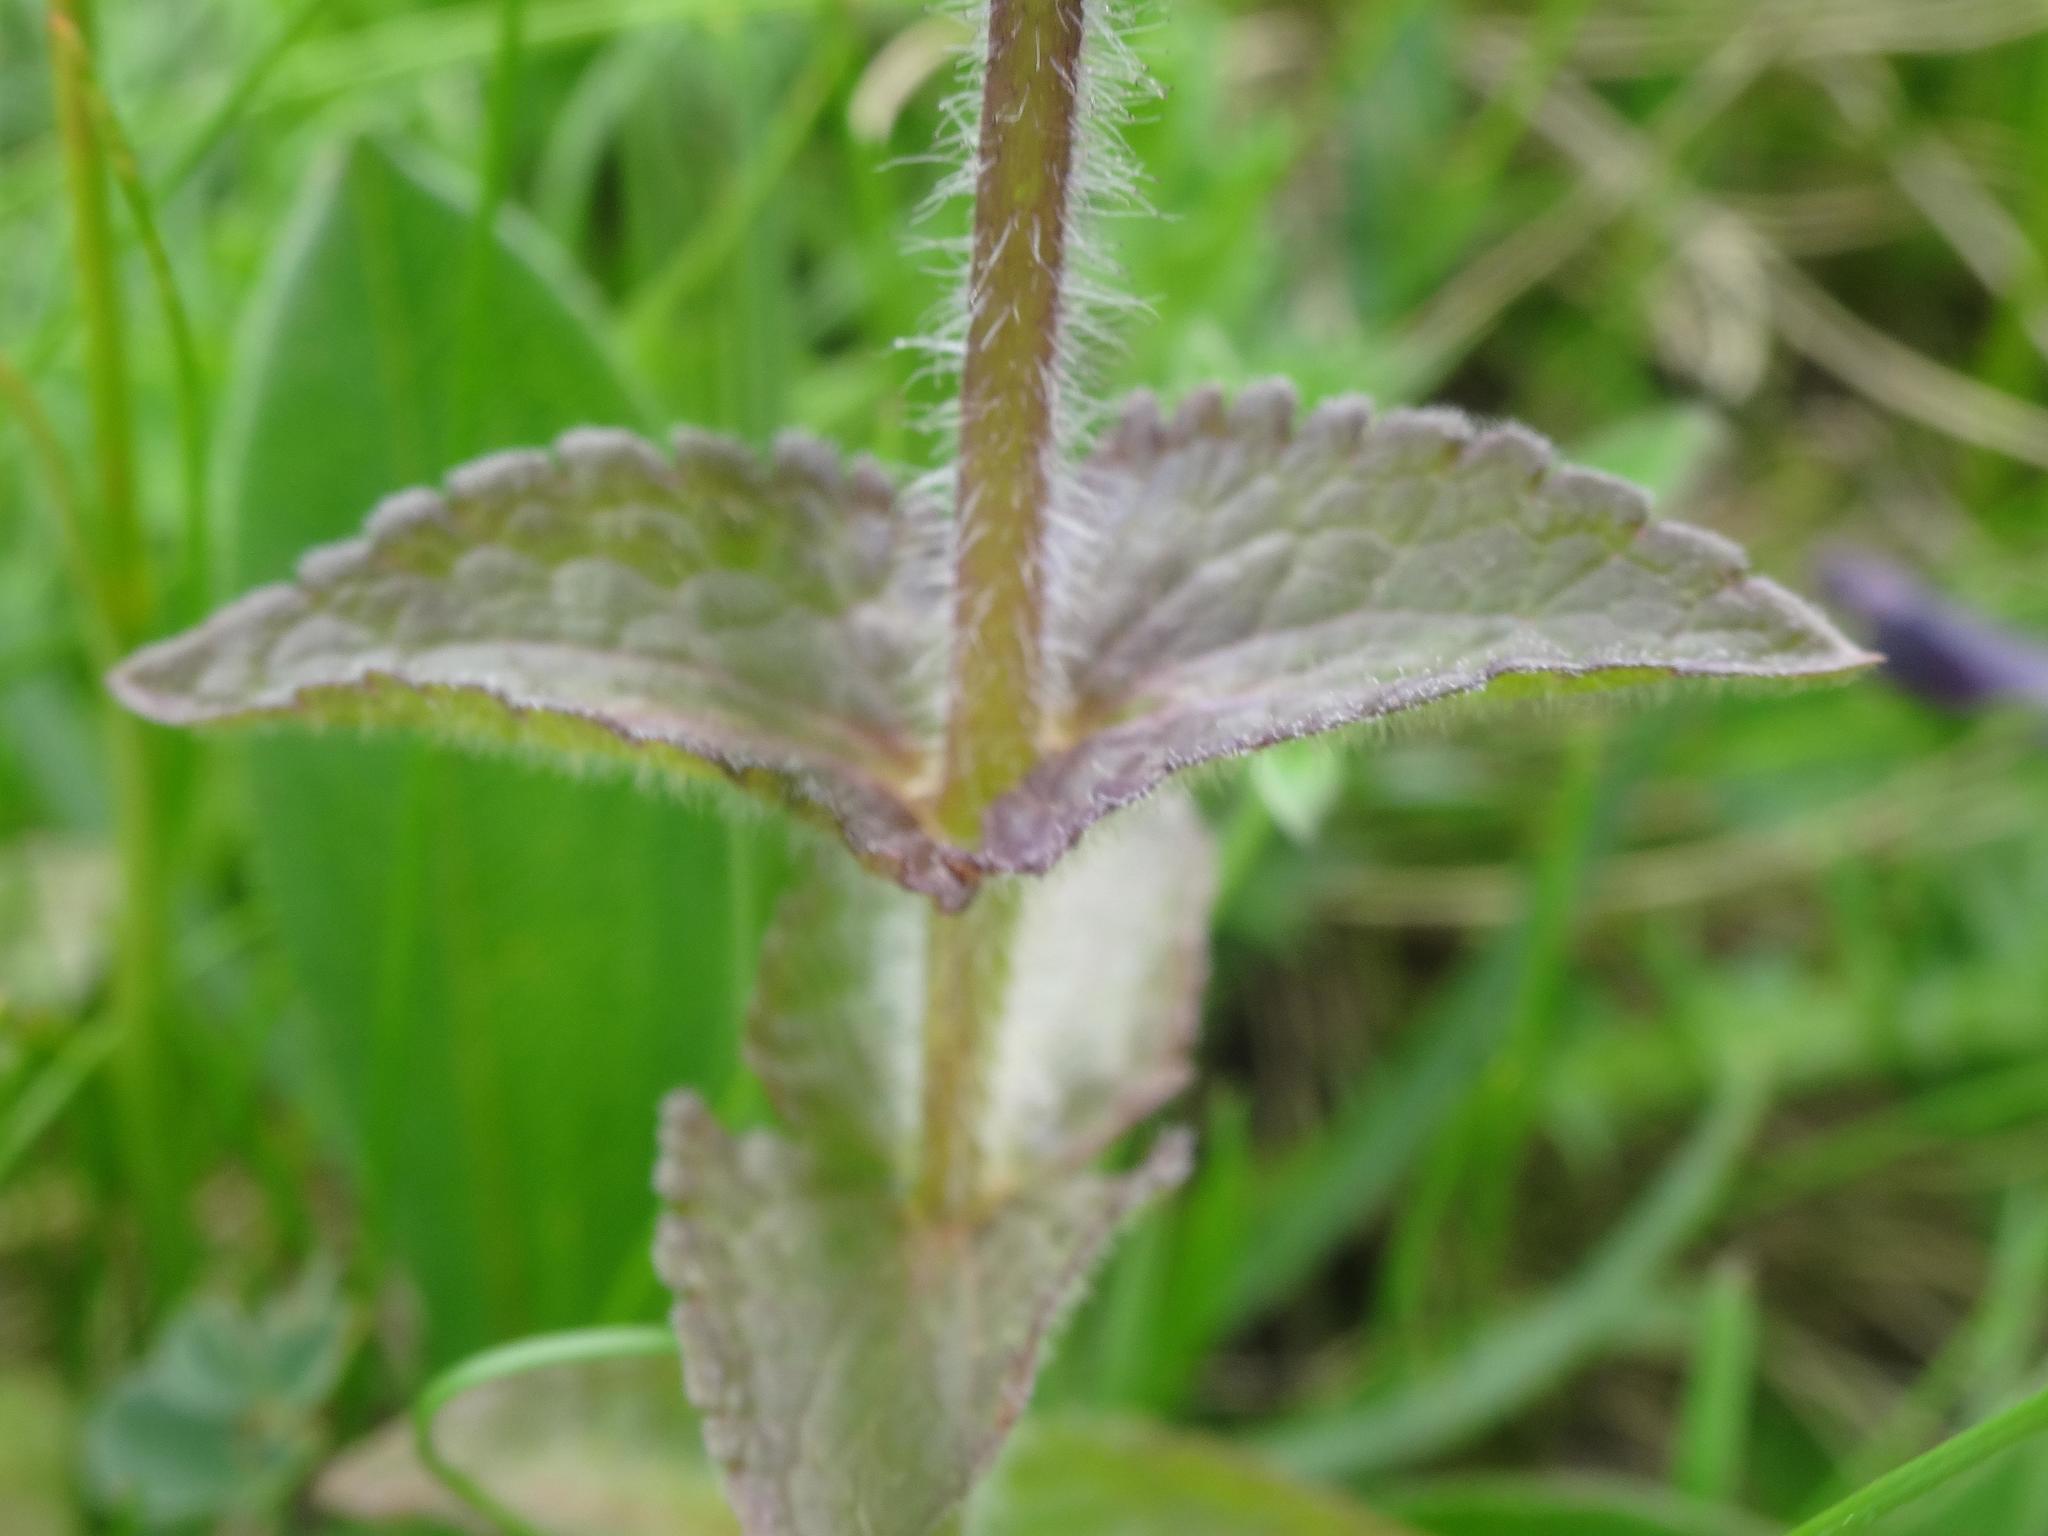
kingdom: Plantae
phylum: Tracheophyta
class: Magnoliopsida
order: Lamiales
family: Orobanchaceae
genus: Bartsia
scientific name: Bartsia alpina
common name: Alpine bartsia
